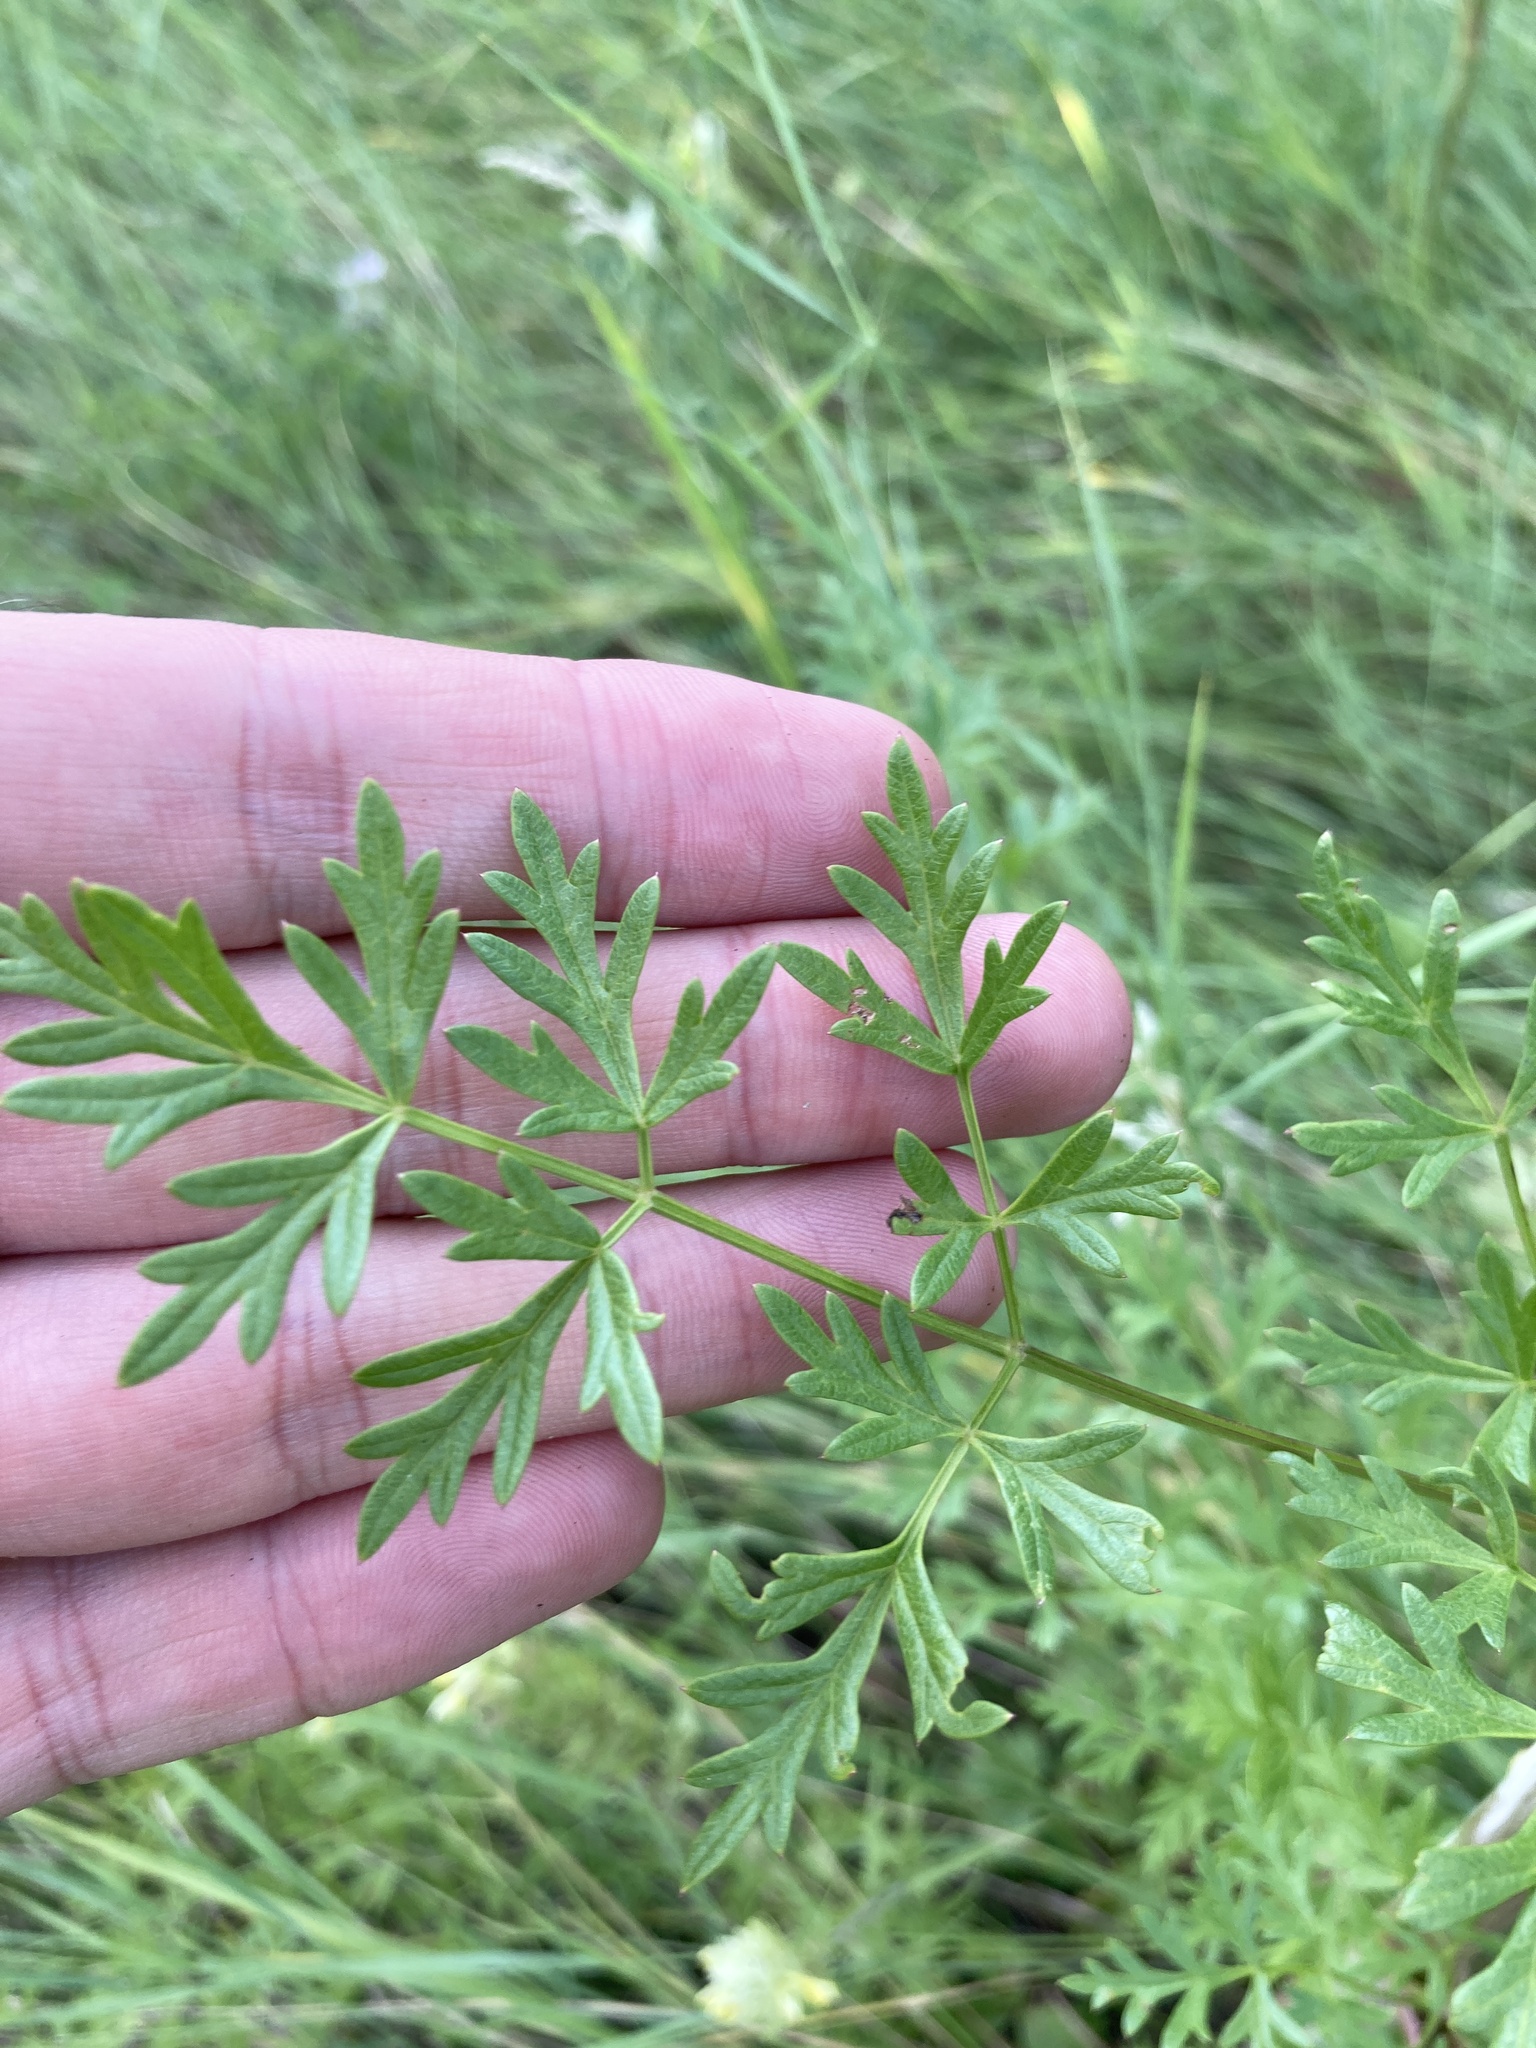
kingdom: Plantae
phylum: Tracheophyta
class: Magnoliopsida
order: Apiales
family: Apiaceae
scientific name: Apiaceae
